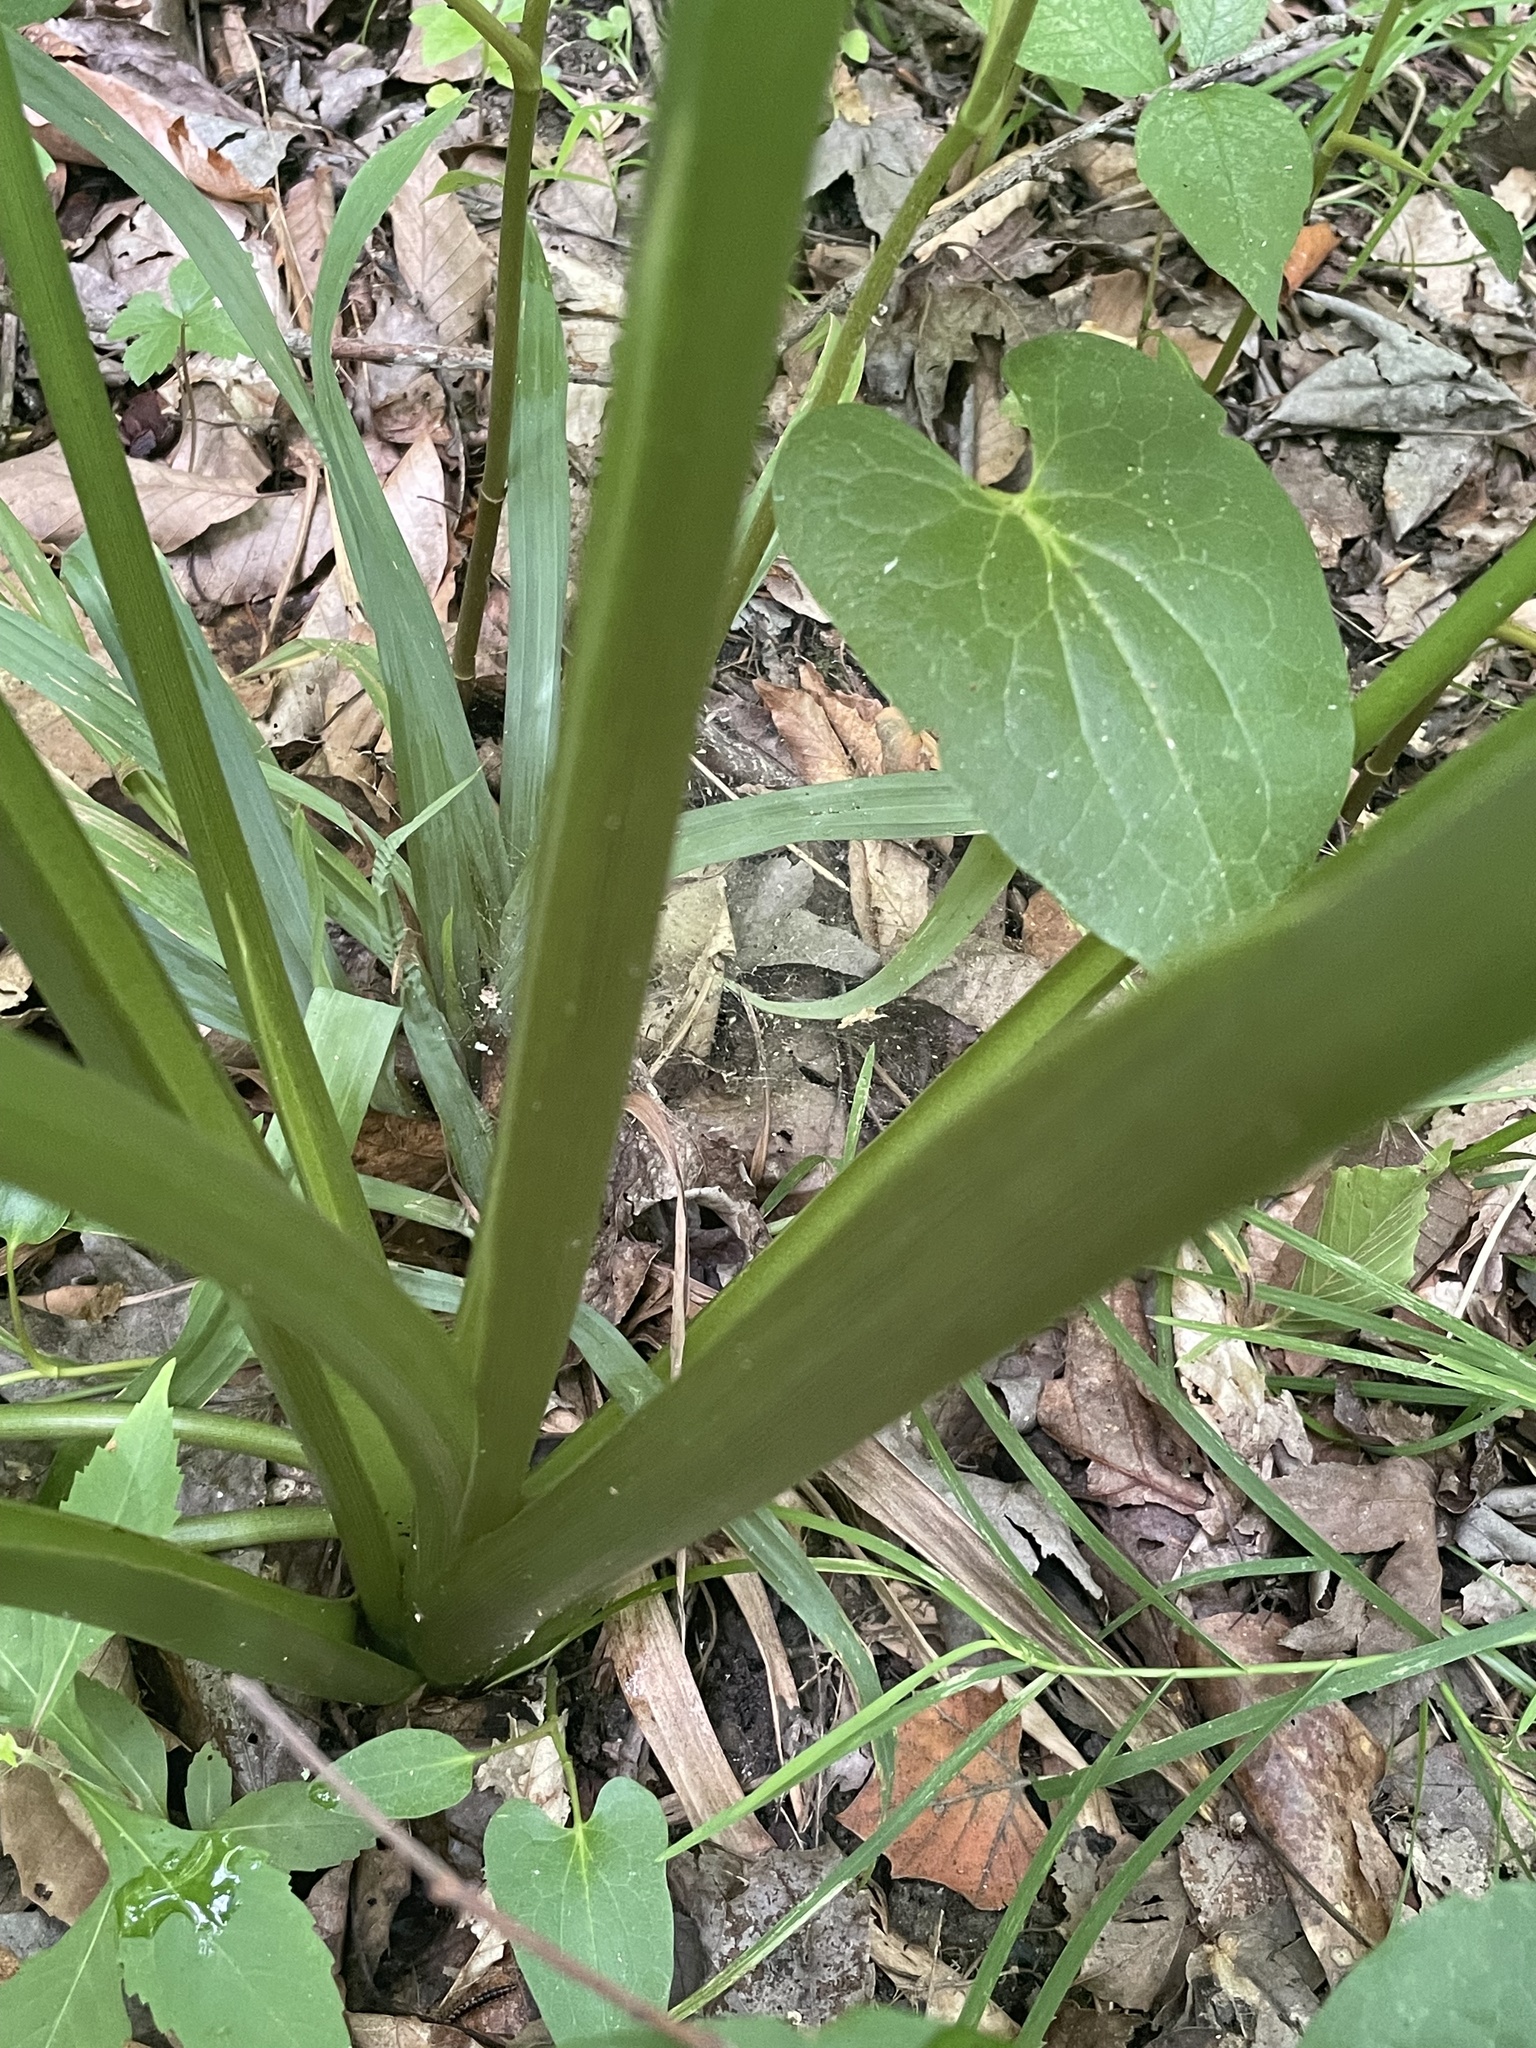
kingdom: Plantae
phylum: Tracheophyta
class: Liliopsida
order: Alismatales
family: Araceae
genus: Peltandra
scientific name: Peltandra virginica
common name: Arrow arum
